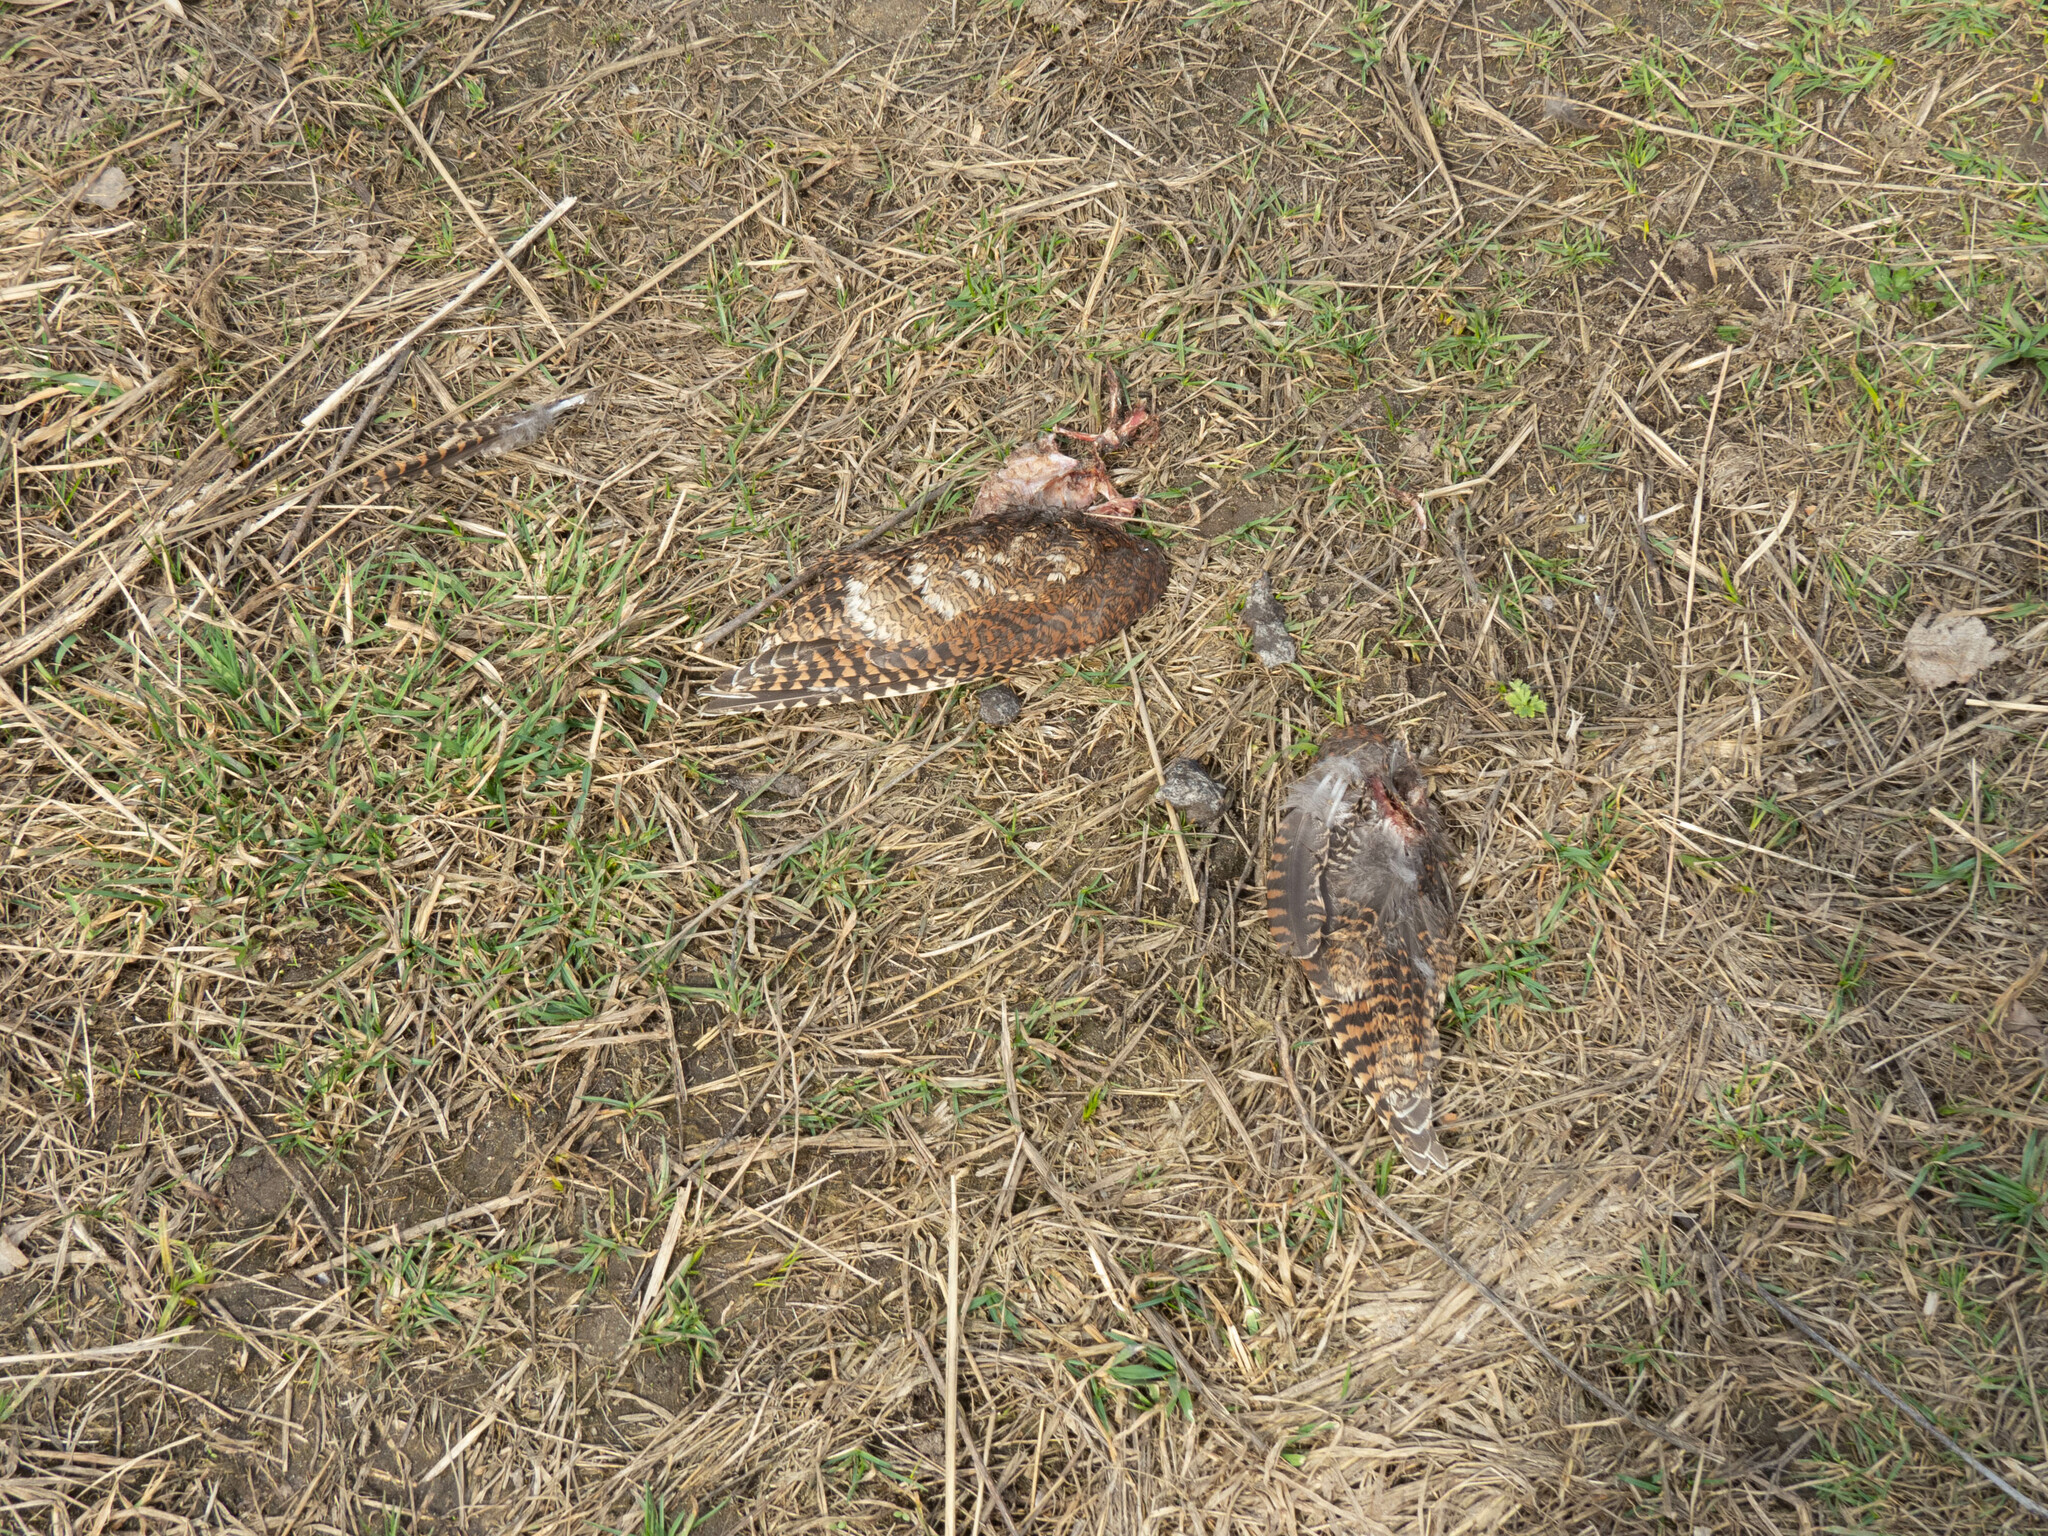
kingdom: Animalia
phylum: Chordata
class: Aves
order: Charadriiformes
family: Scolopacidae
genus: Scolopax
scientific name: Scolopax rusticola
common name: Eurasian woodcock
